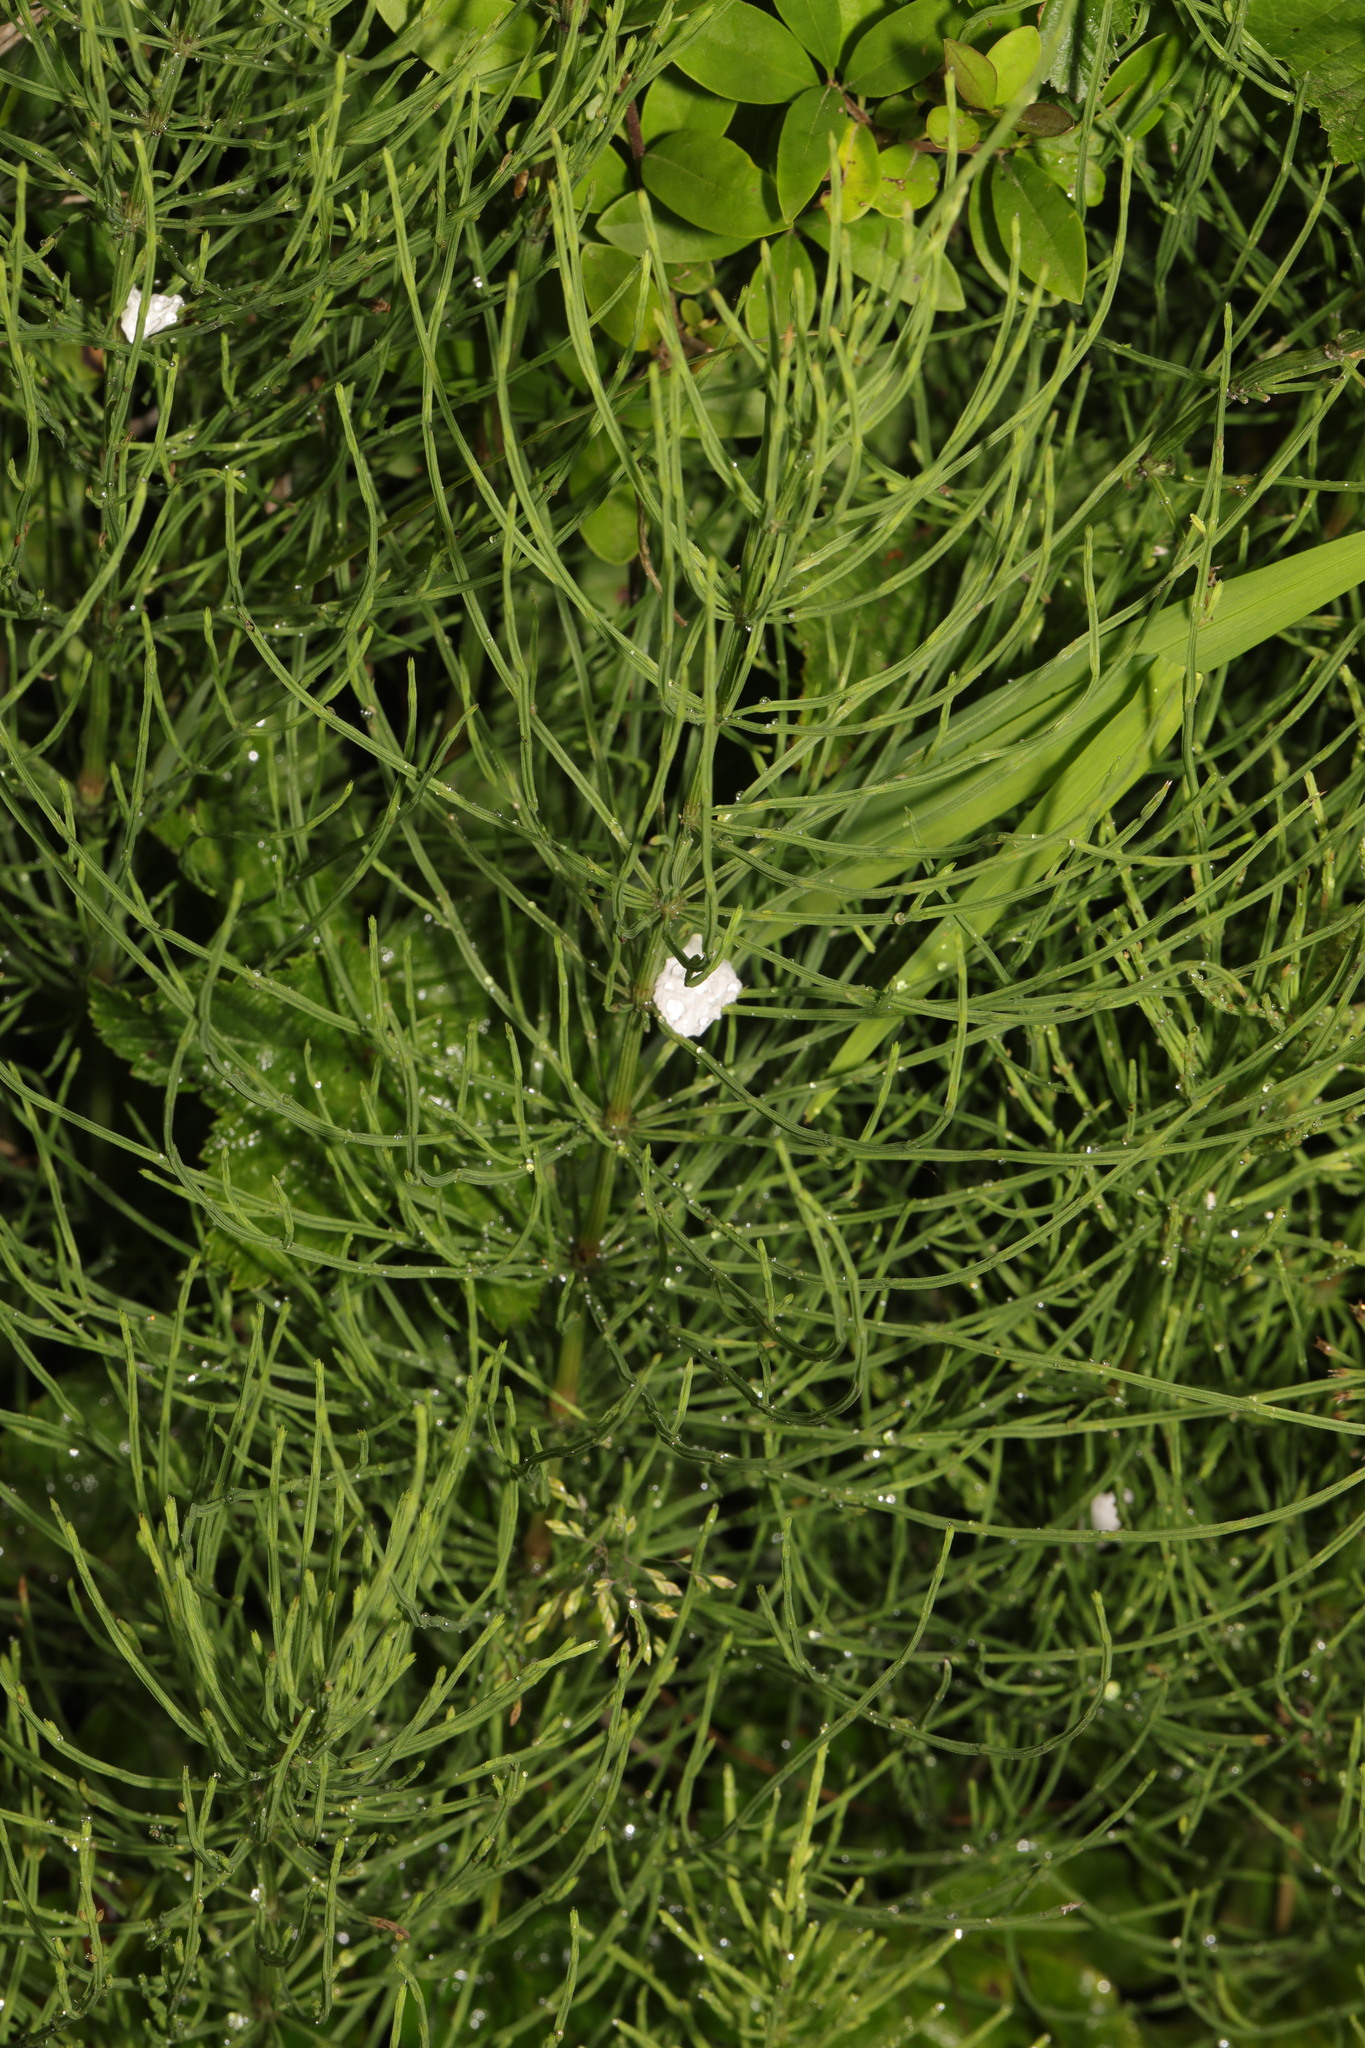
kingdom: Plantae
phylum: Tracheophyta
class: Polypodiopsida
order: Equisetales
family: Equisetaceae
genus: Equisetum
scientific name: Equisetum arvense
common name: Field horsetail
